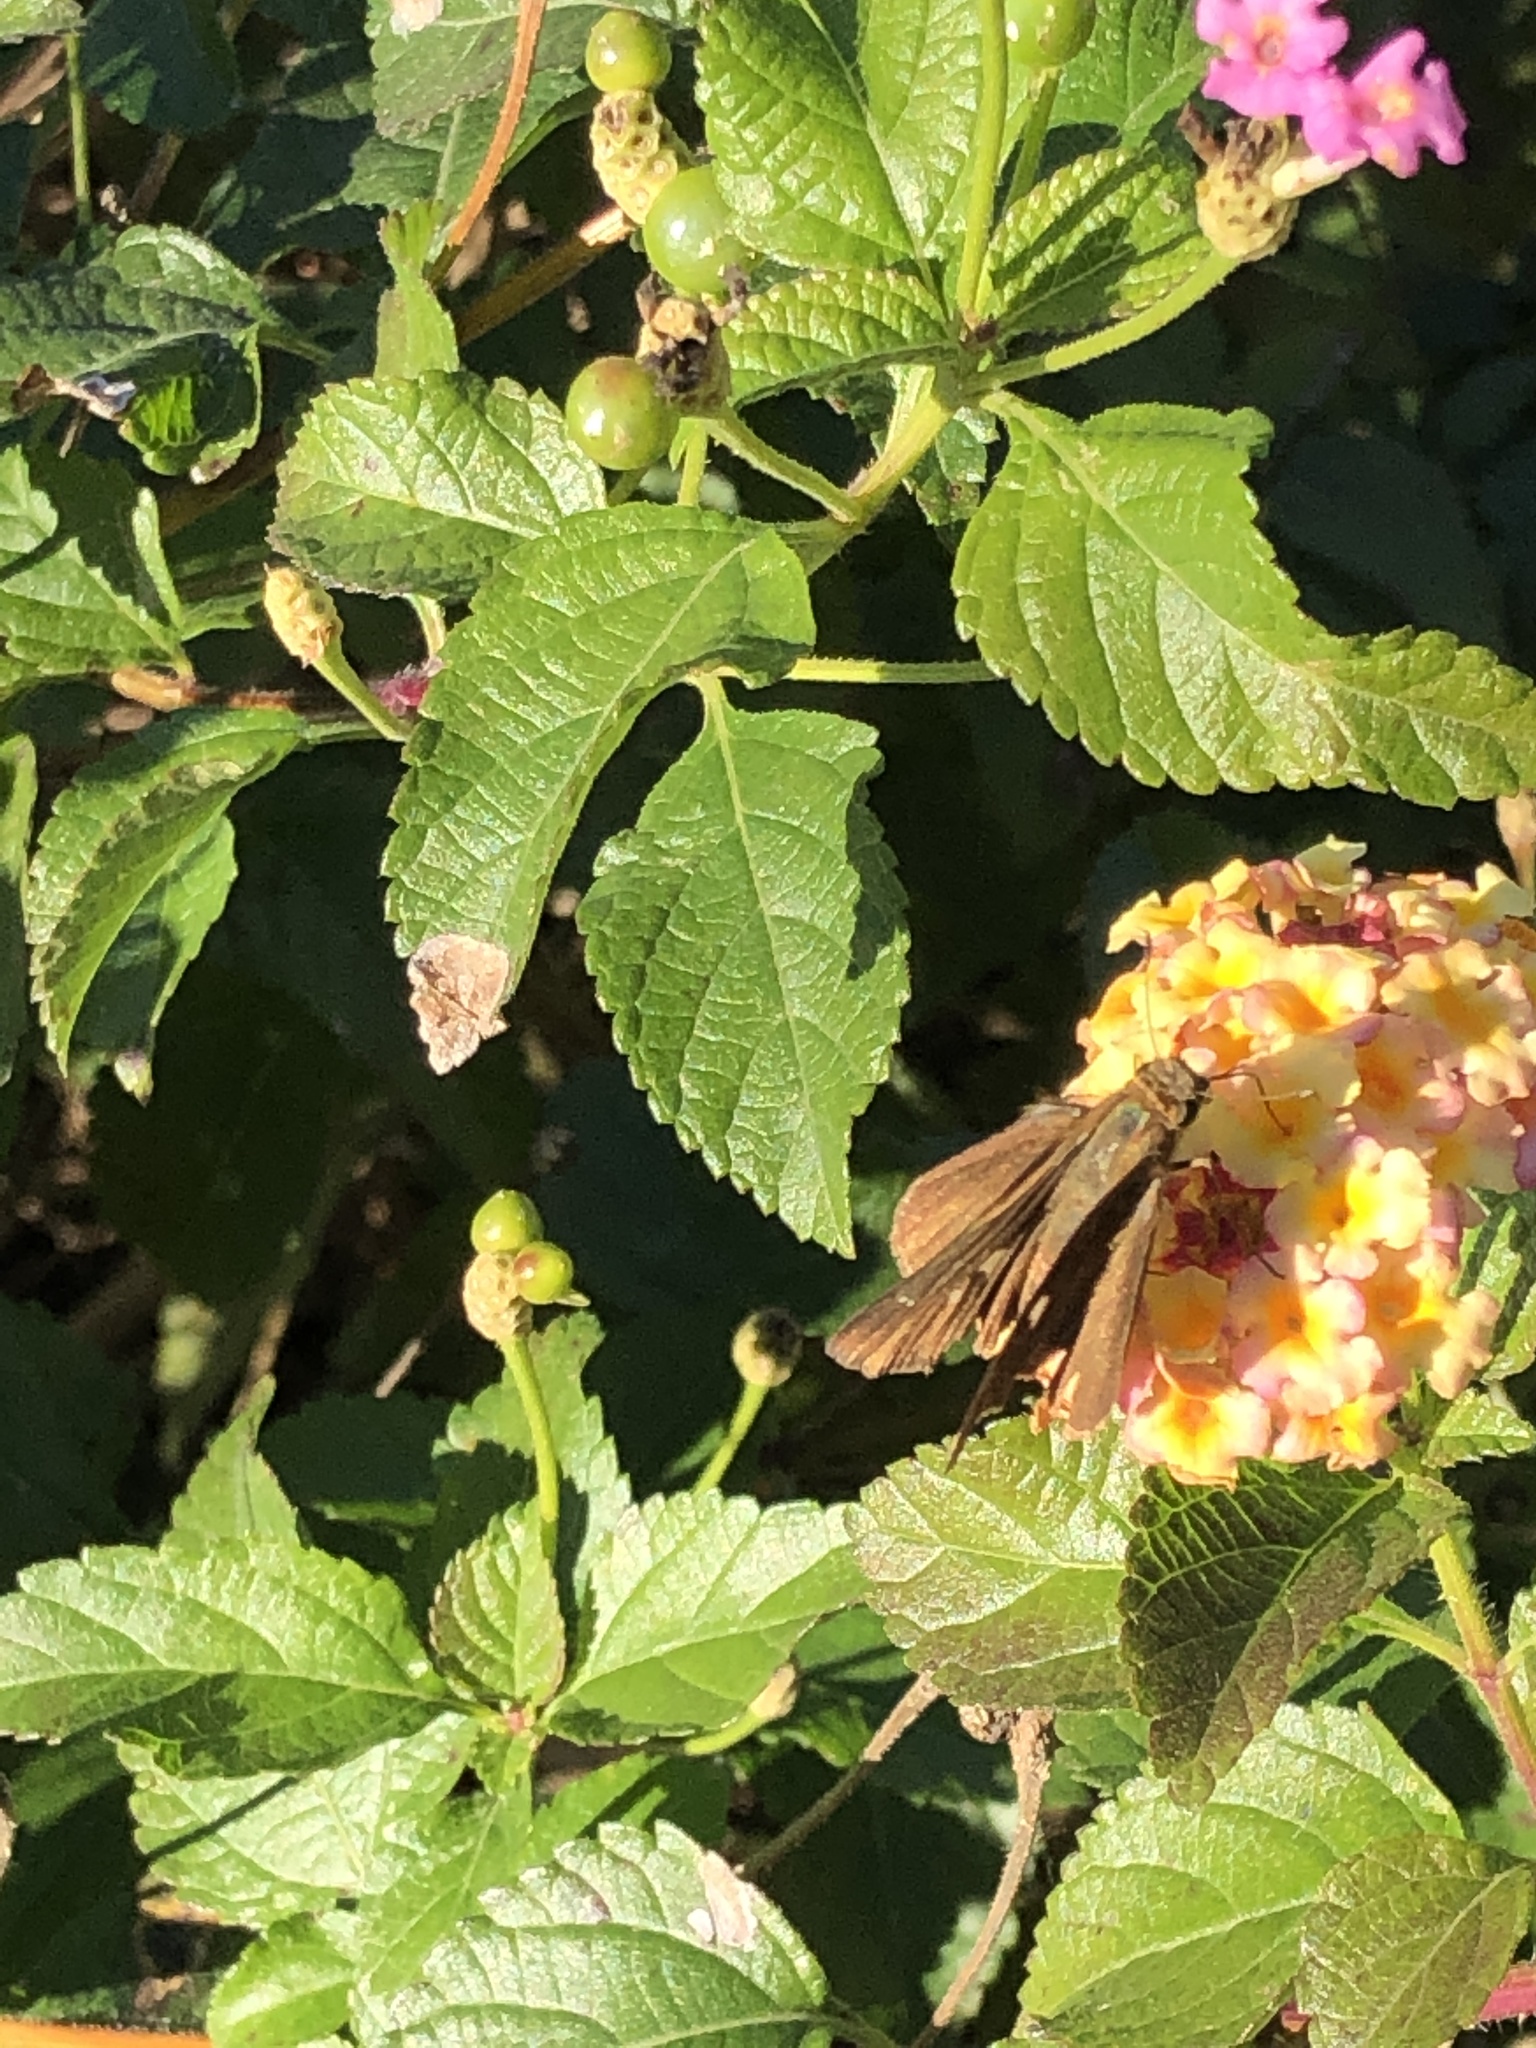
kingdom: Animalia
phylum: Arthropoda
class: Insecta
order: Lepidoptera
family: Hesperiidae
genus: Panoquina
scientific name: Panoquina ocola
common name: Ocola skipper
